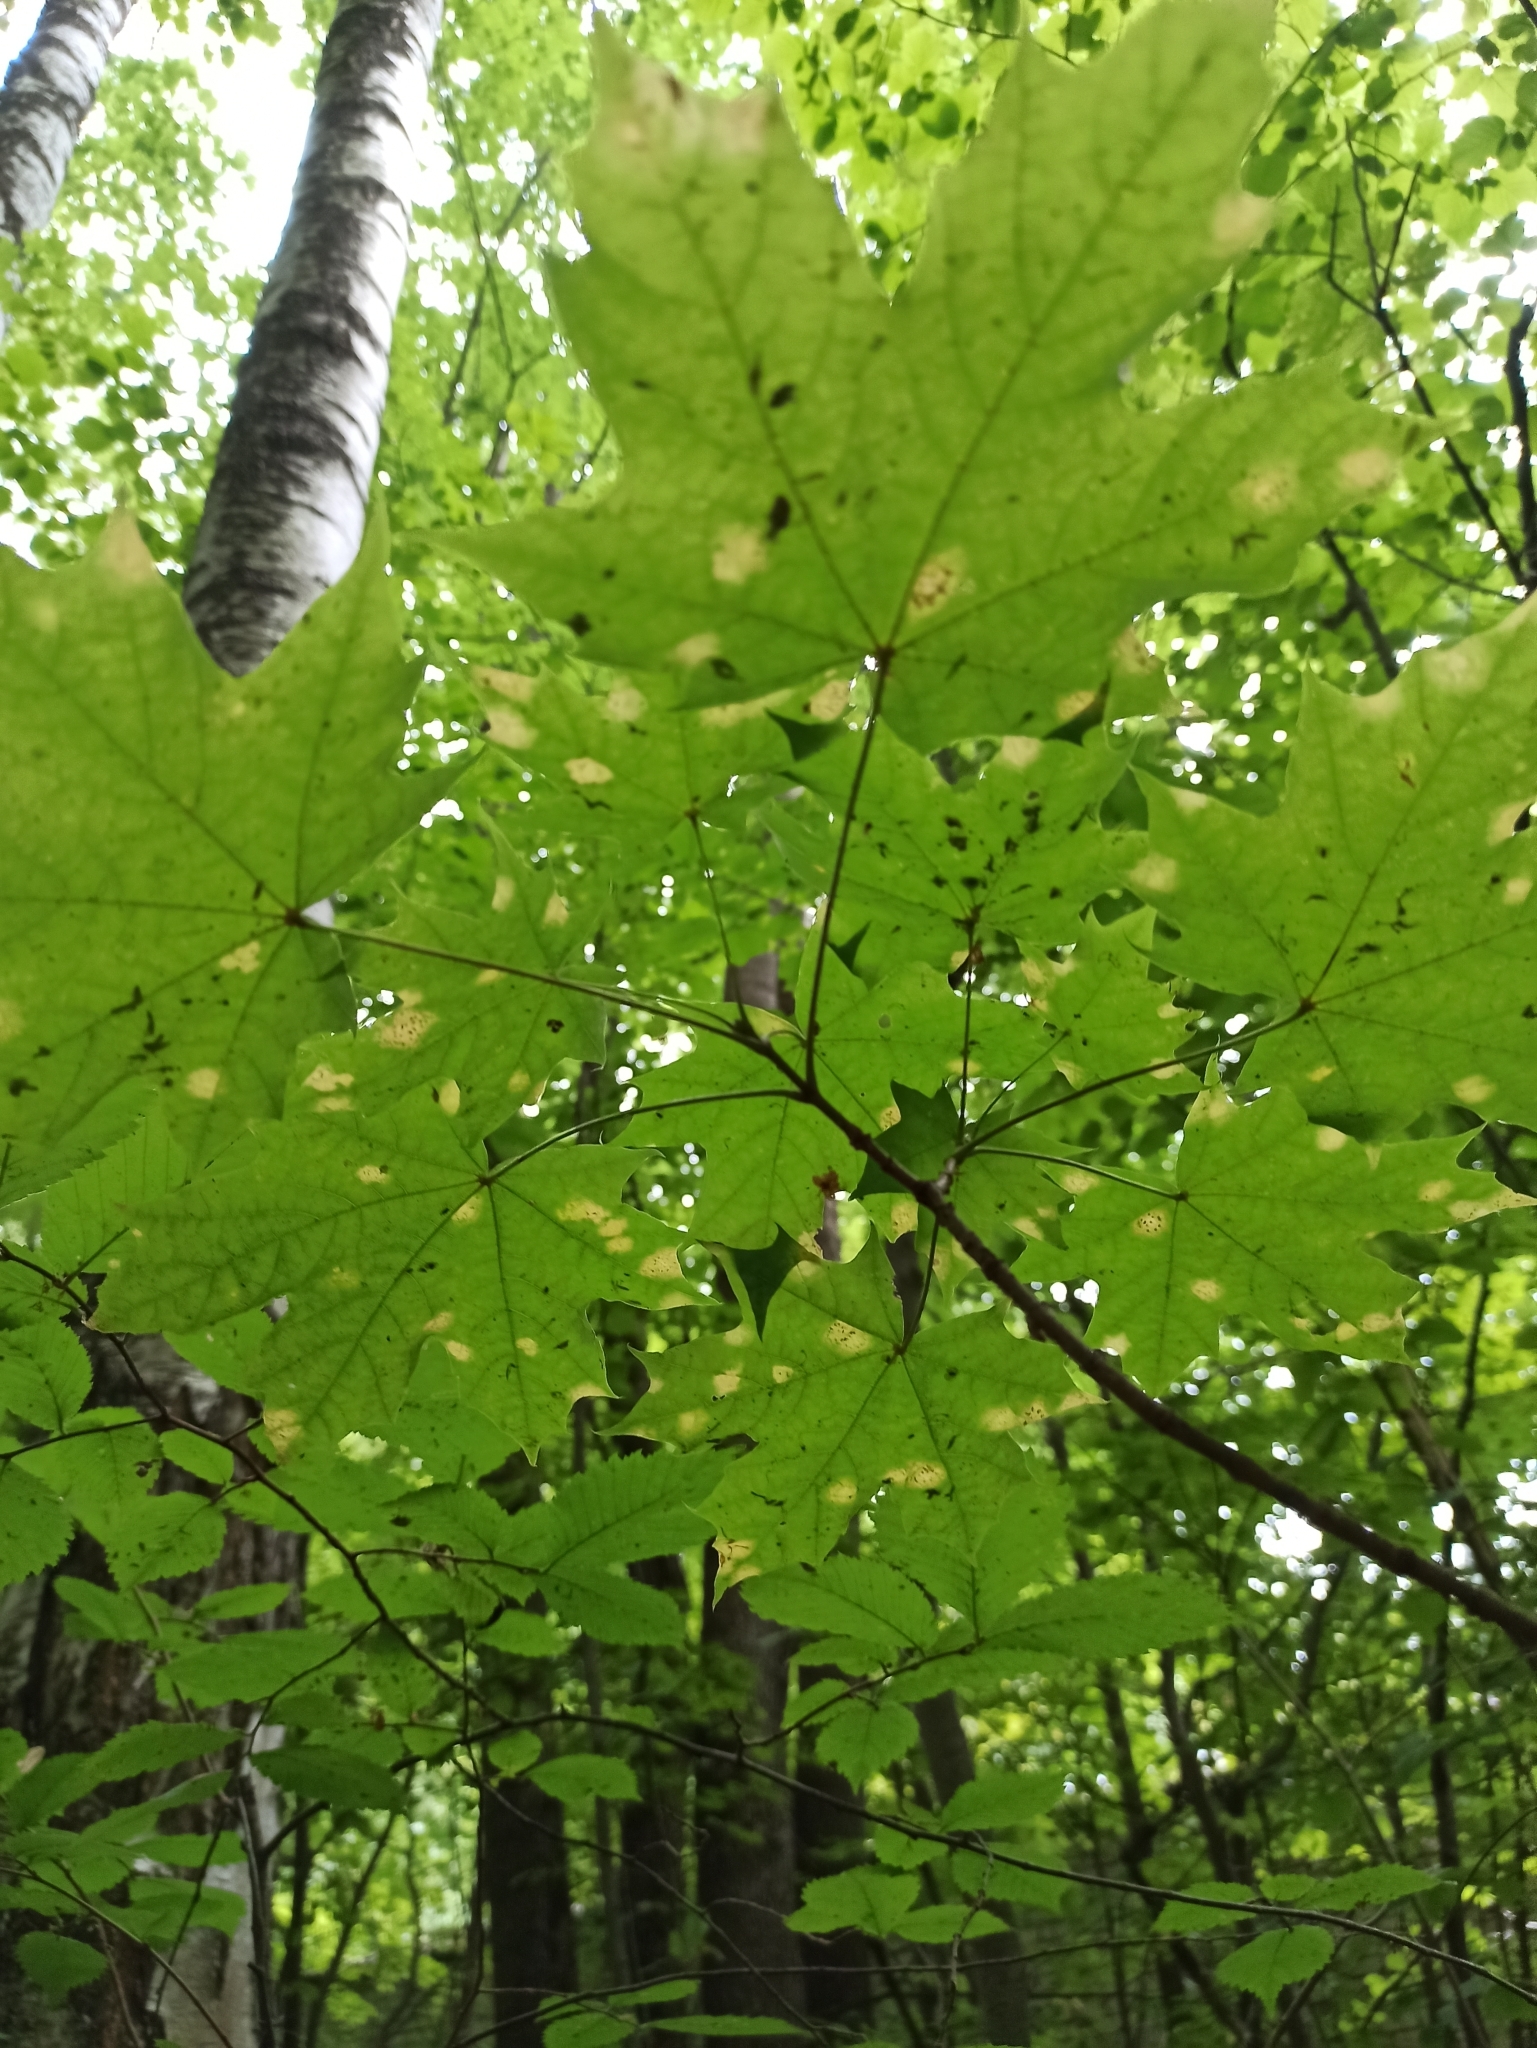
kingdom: Plantae
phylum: Tracheophyta
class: Magnoliopsida
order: Sapindales
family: Sapindaceae
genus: Acer
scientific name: Acer platanoides
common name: Norway maple
